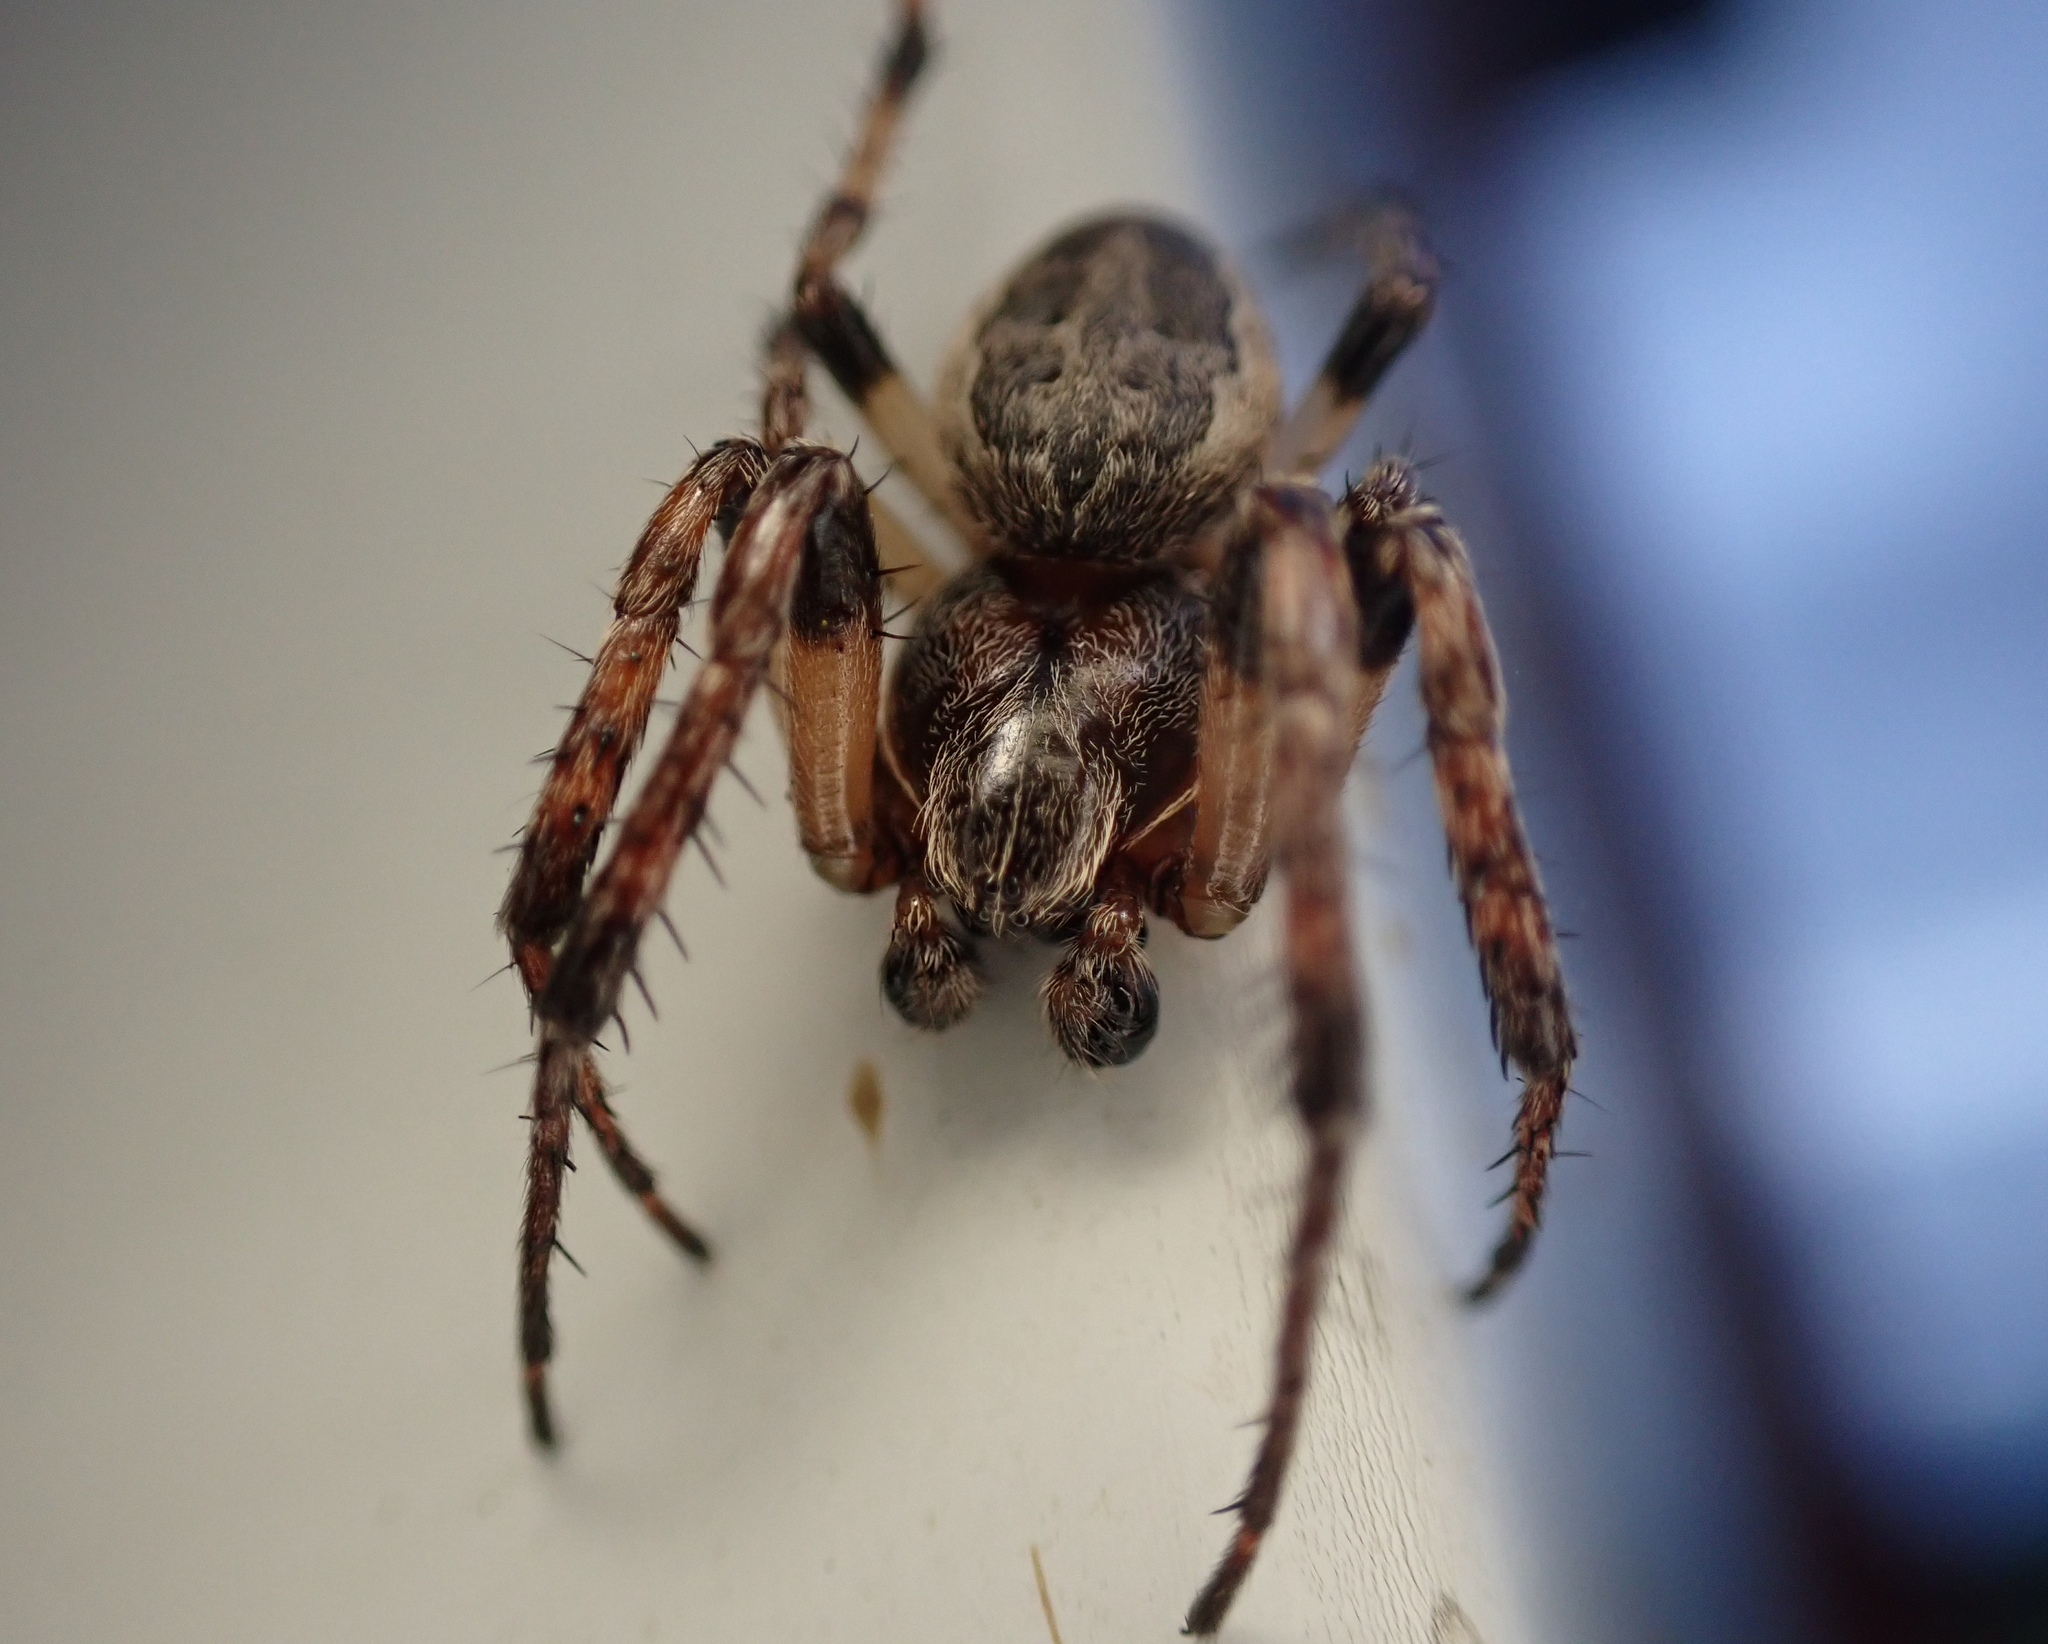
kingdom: Animalia
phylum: Arthropoda
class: Arachnida
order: Araneae
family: Araneidae
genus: Larinioides
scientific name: Larinioides cornutus
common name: Furrow orbweaver
